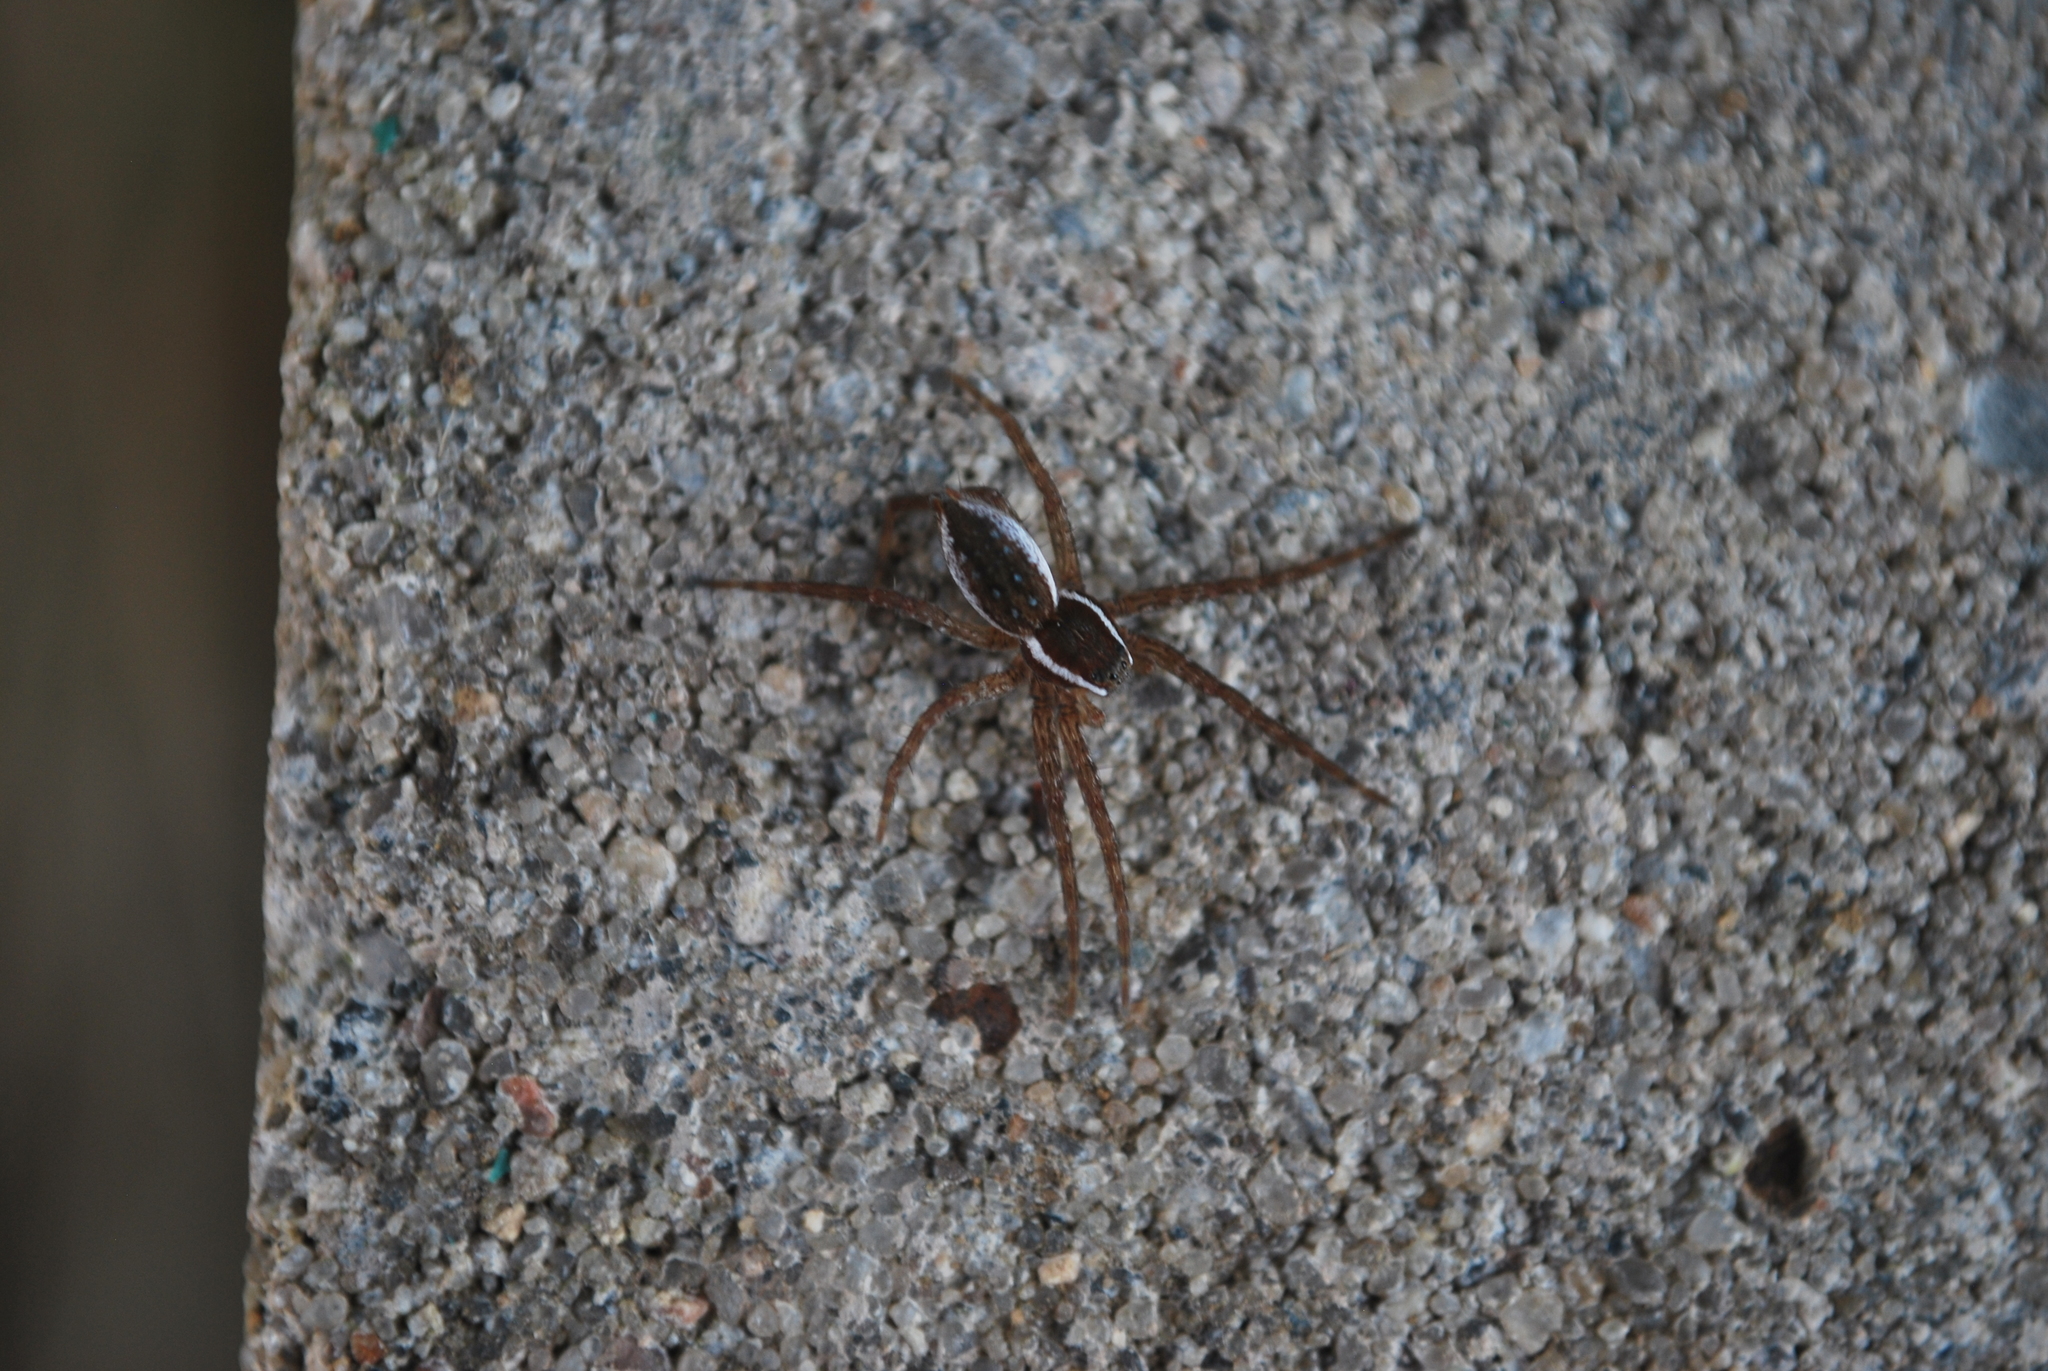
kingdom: Animalia
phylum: Arthropoda
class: Arachnida
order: Araneae
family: Pisauridae
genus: Dolomedes
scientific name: Dolomedes triton
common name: Six-spotted fishing spider
